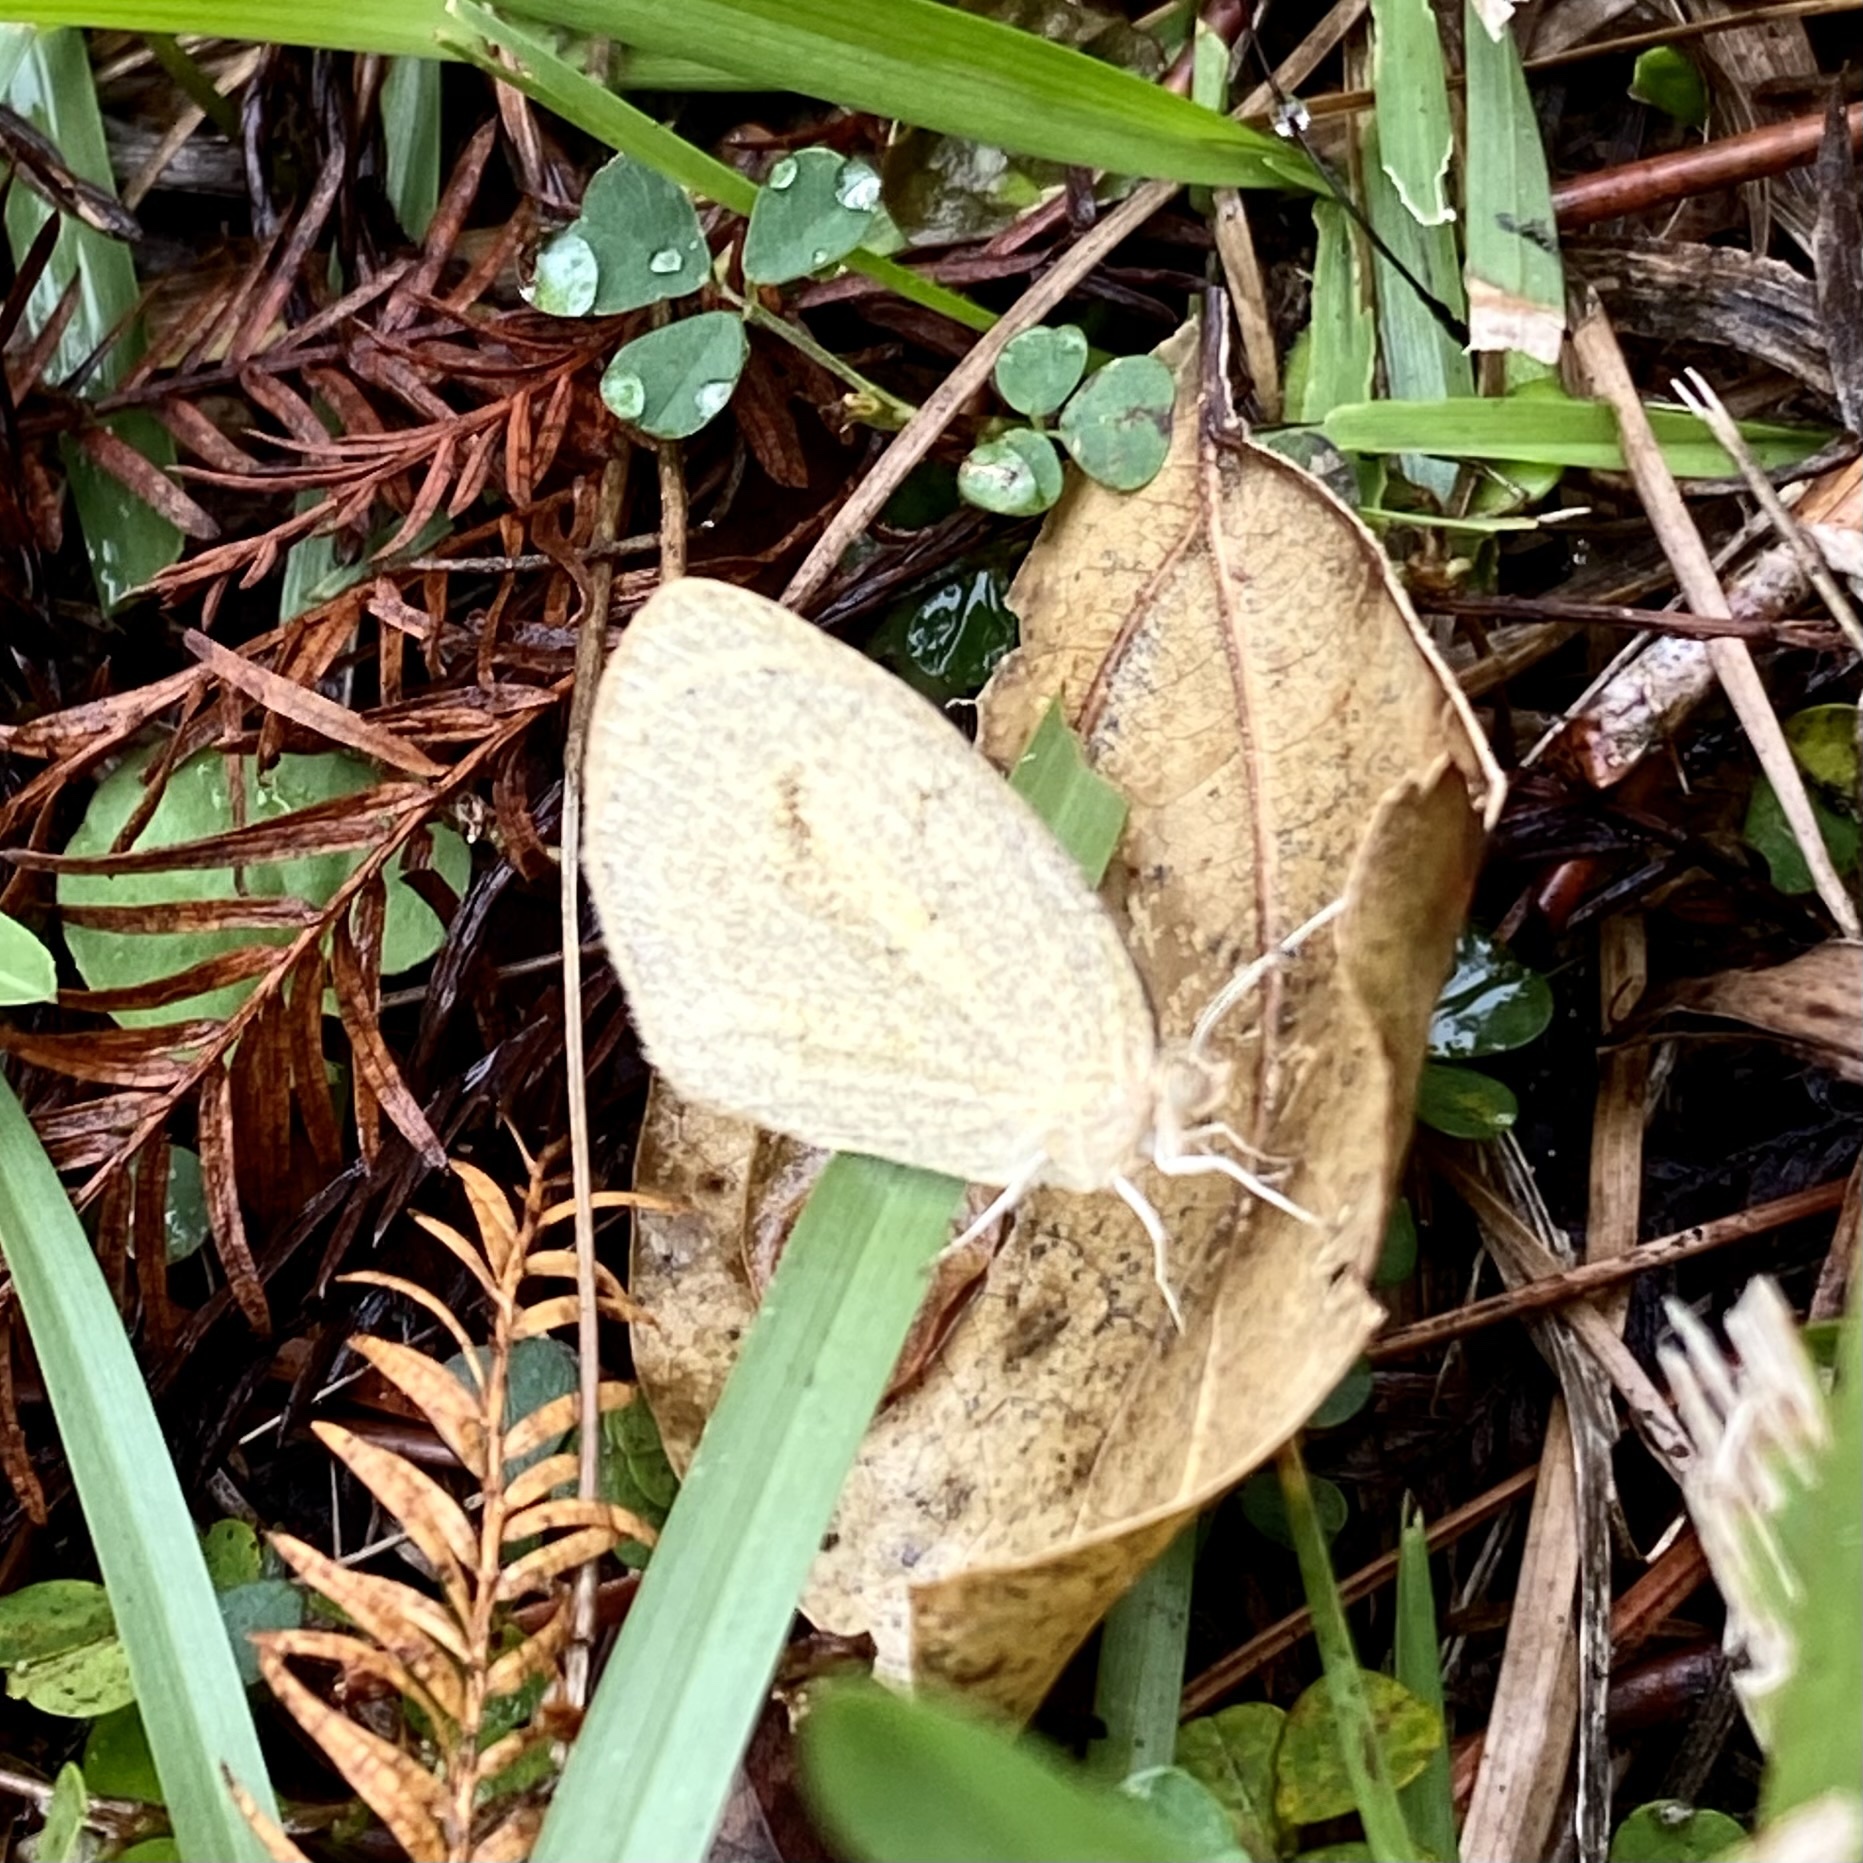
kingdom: Animalia
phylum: Arthropoda
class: Insecta
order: Lepidoptera
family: Pieridae
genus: Eurema
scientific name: Eurema daira
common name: Barred sulphur
